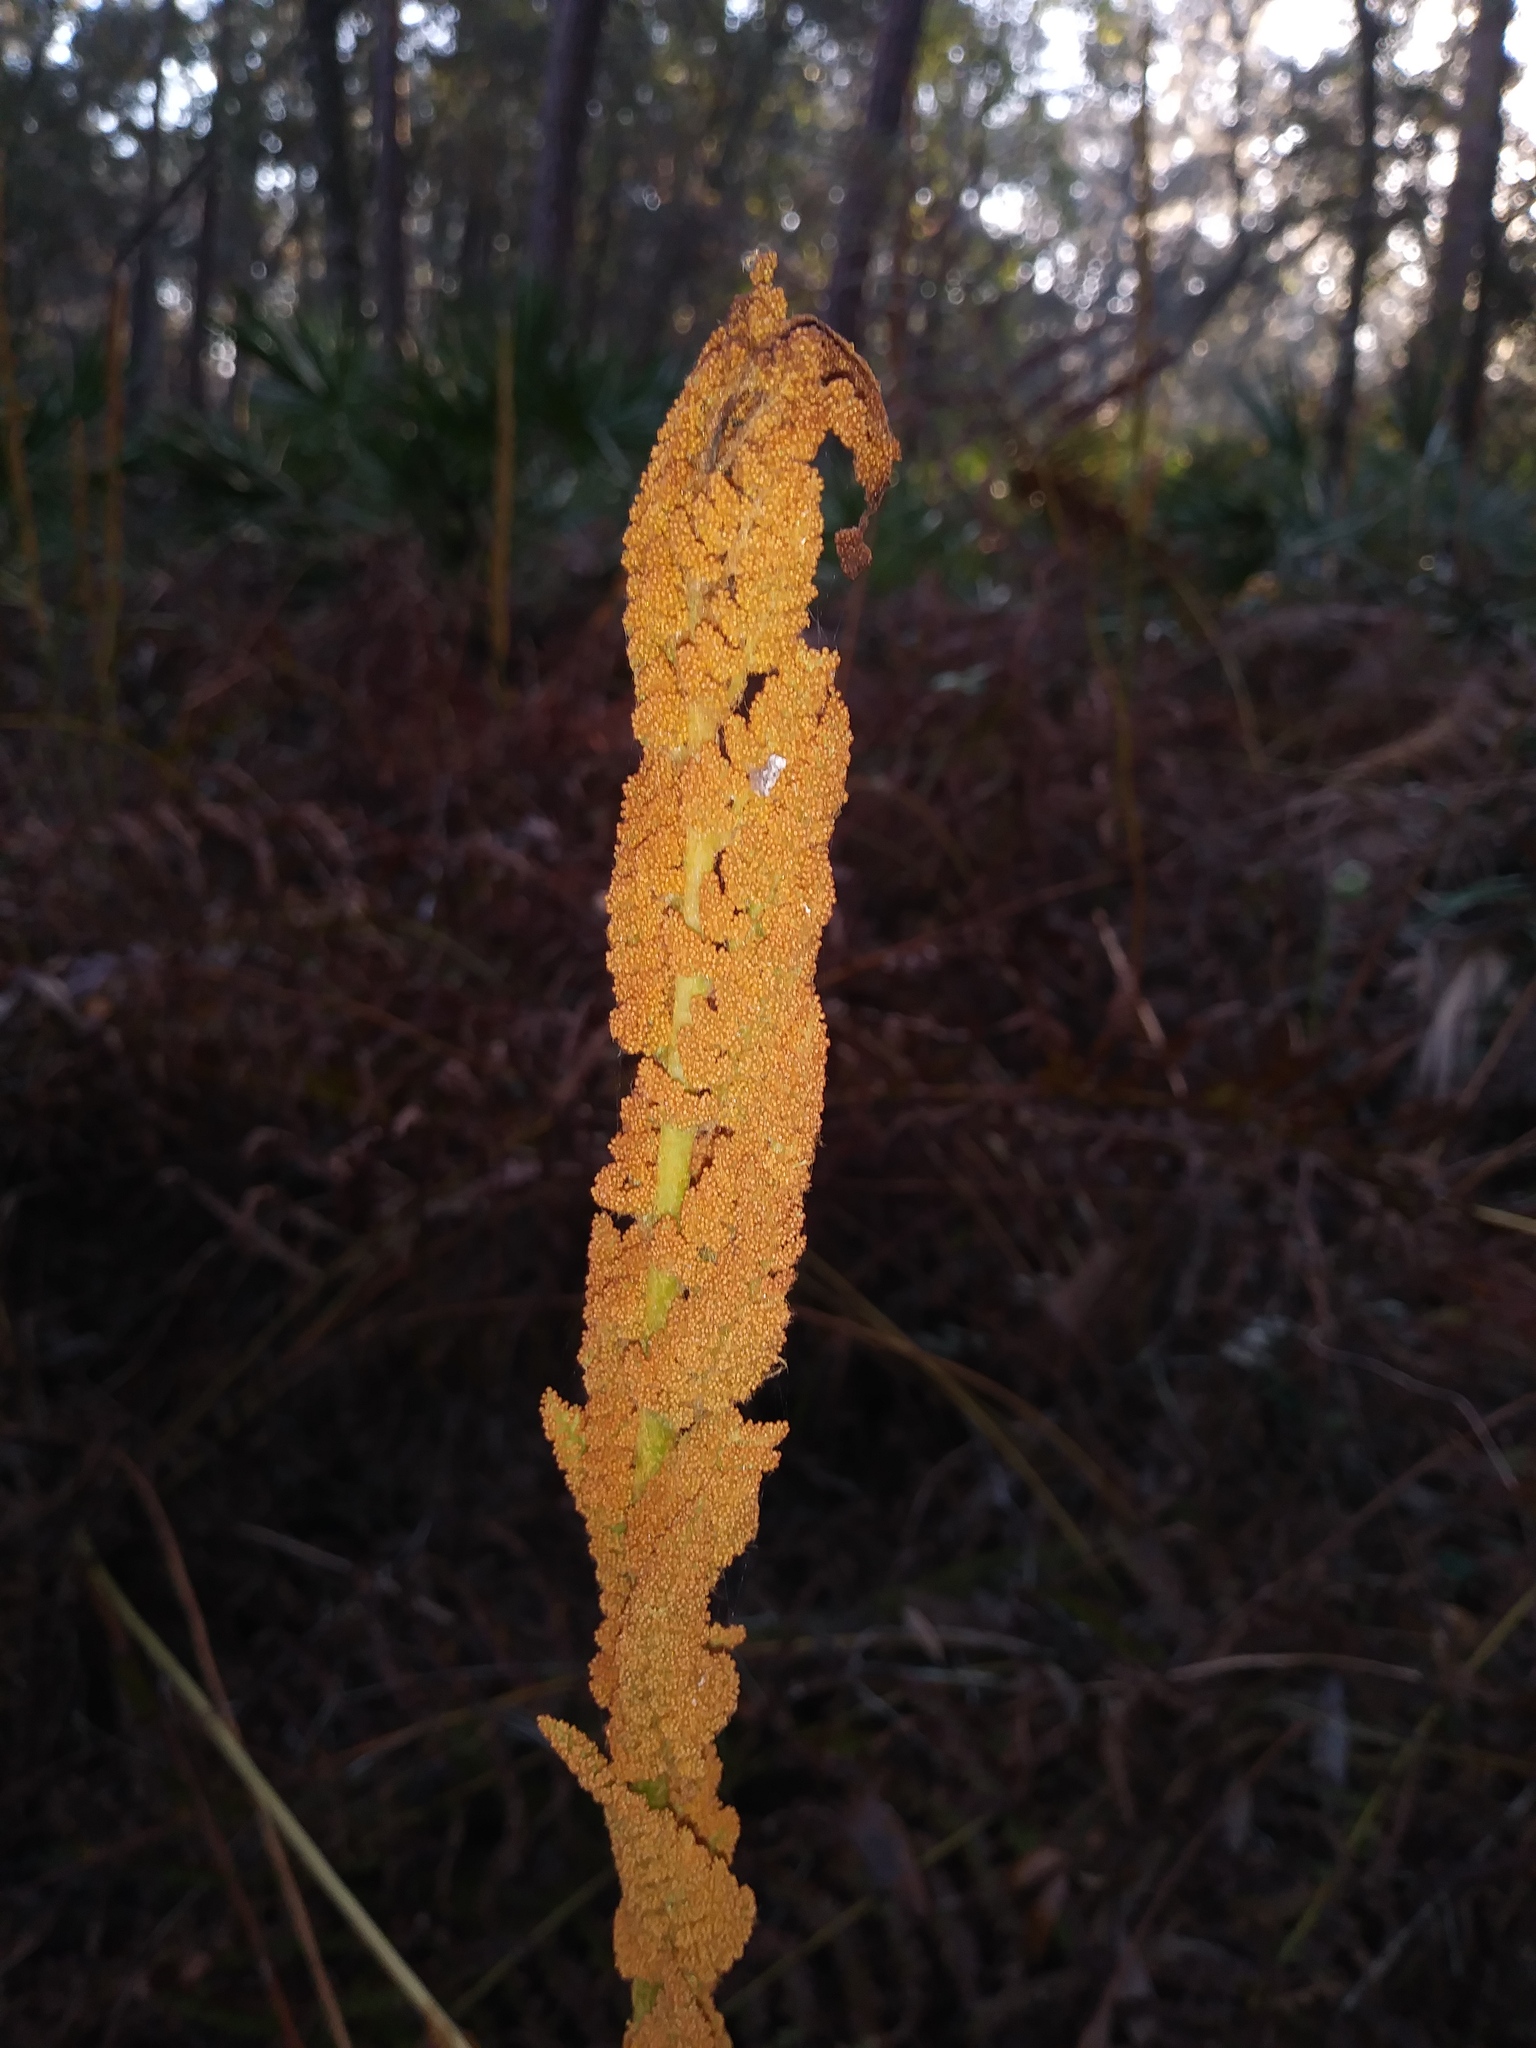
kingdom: Plantae
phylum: Tracheophyta
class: Polypodiopsida
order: Osmundales
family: Osmundaceae
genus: Osmundastrum
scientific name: Osmundastrum cinnamomeum
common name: Cinnamon fern
